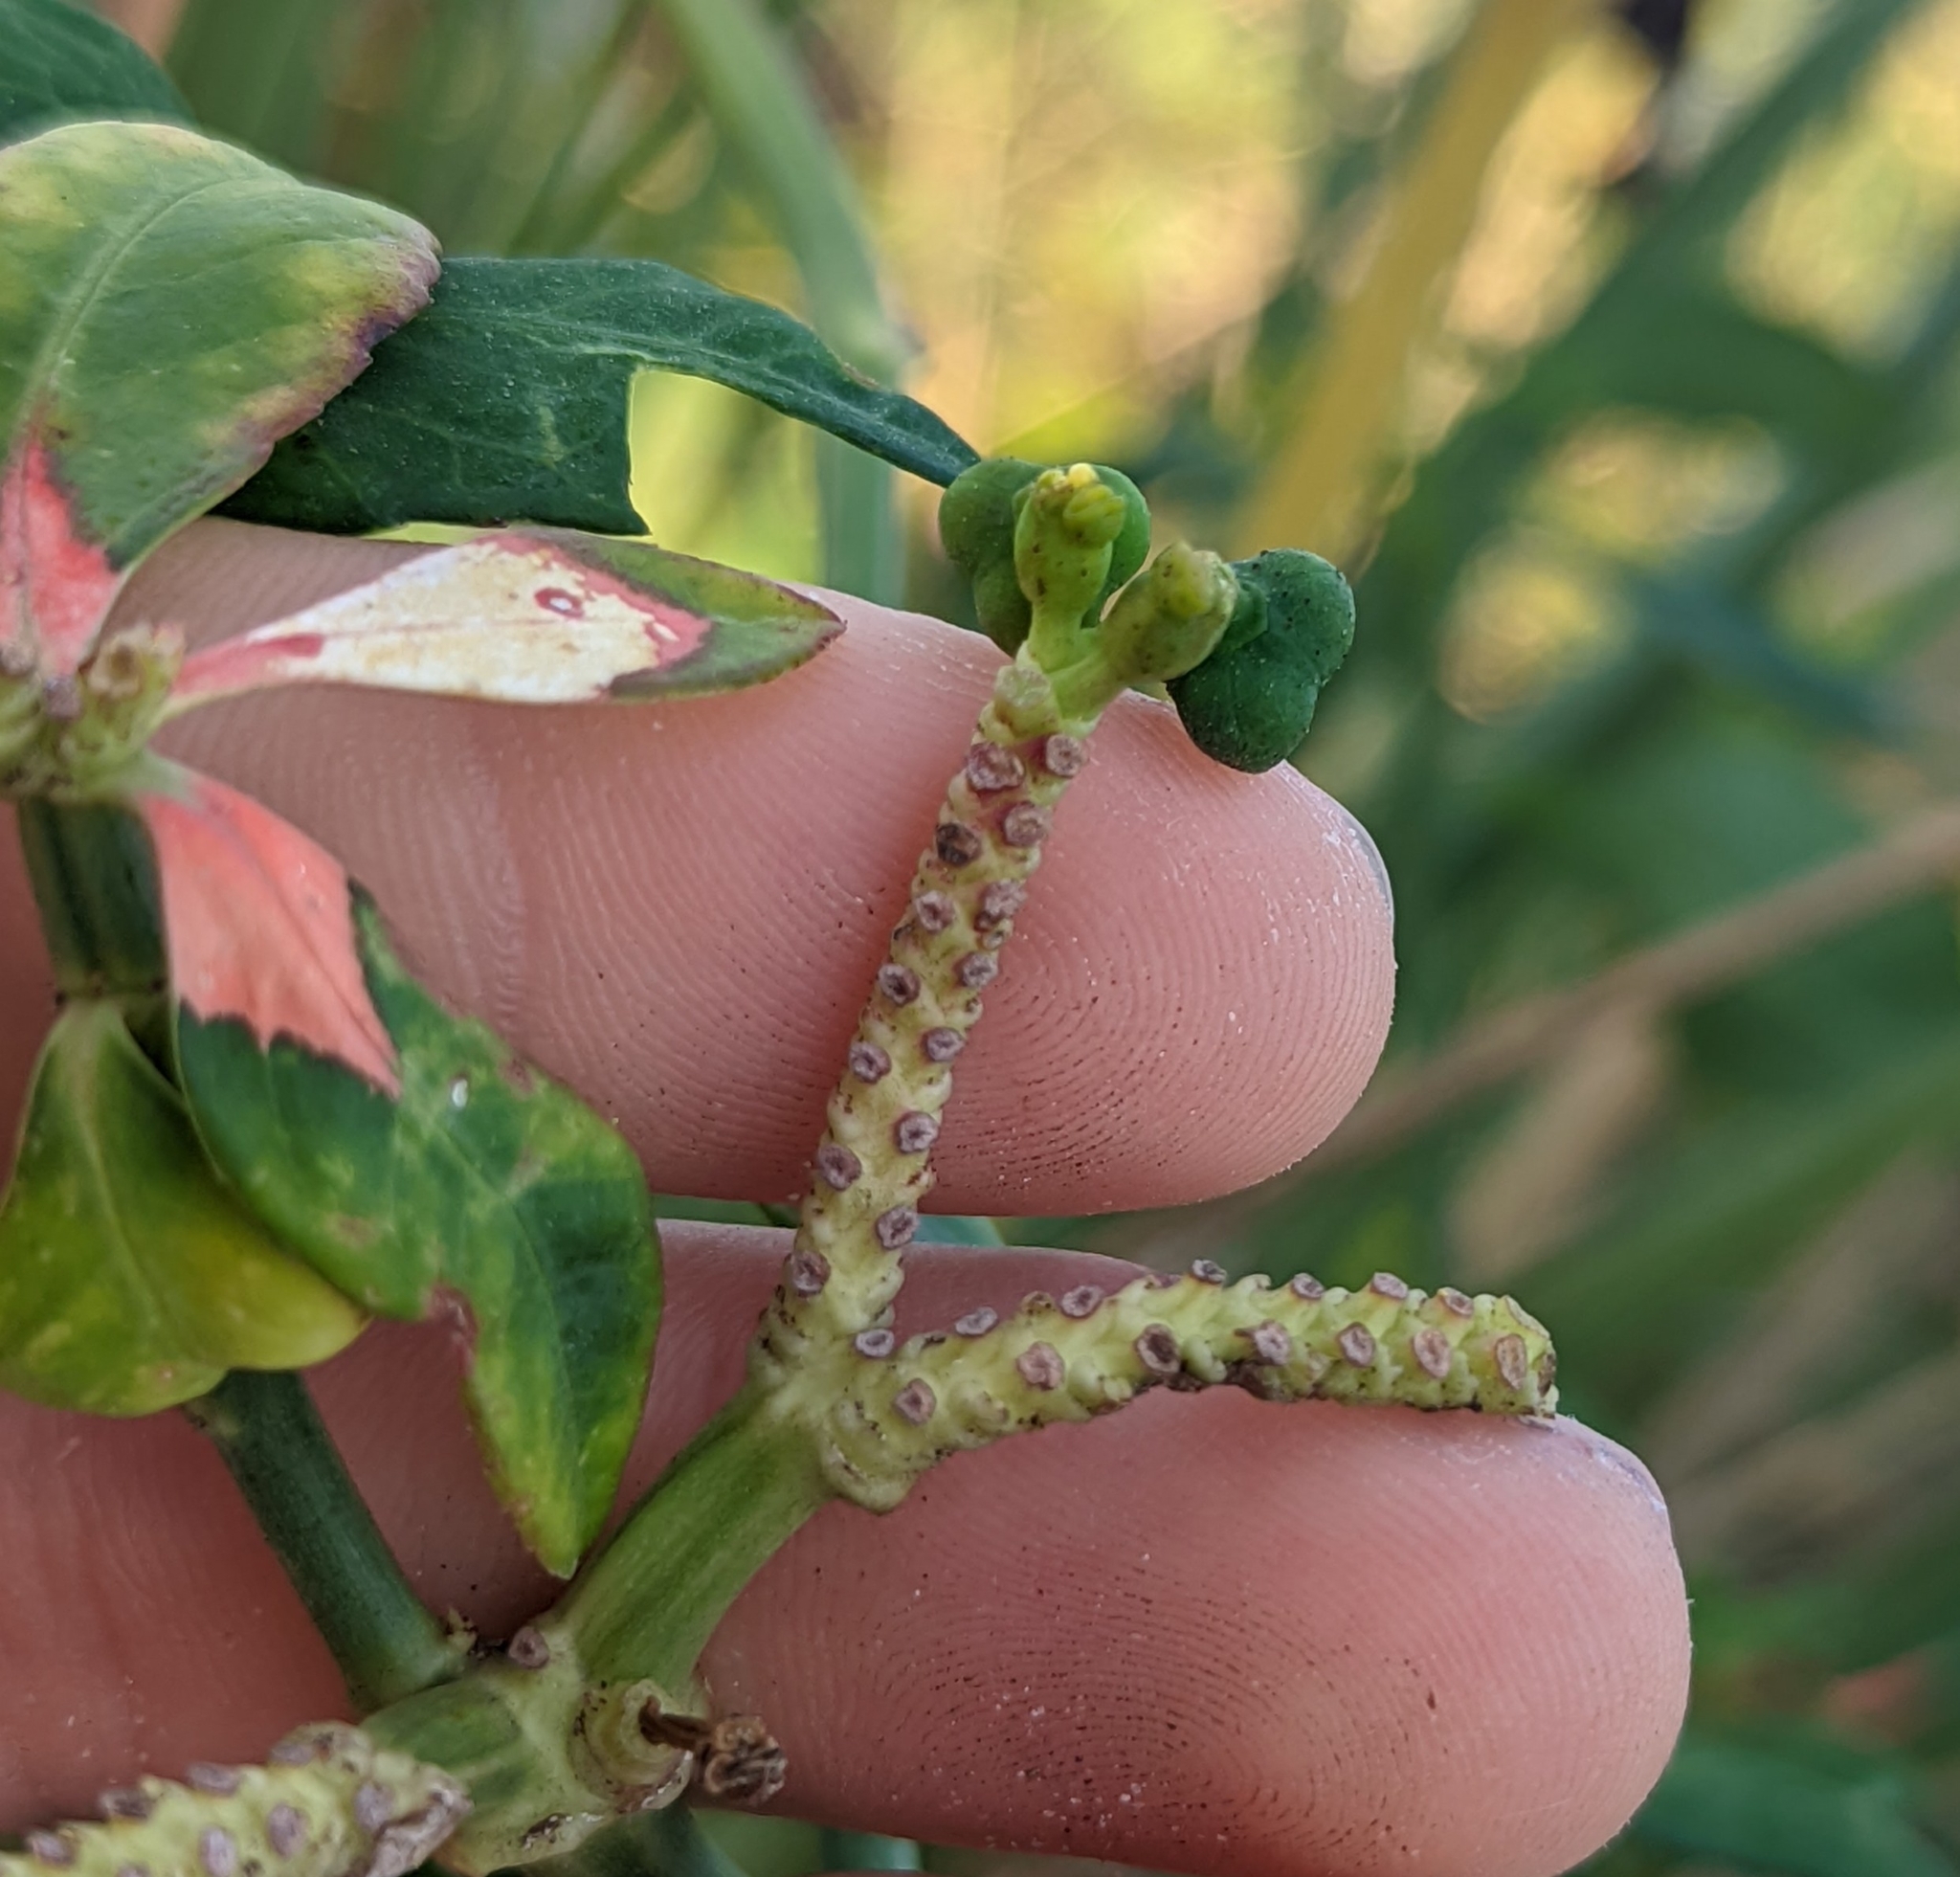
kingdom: Plantae
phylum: Tracheophyta
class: Magnoliopsida
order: Malpighiales
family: Euphorbiaceae
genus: Euphorbia
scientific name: Euphorbia heterophylla
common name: Mexican fireplant
